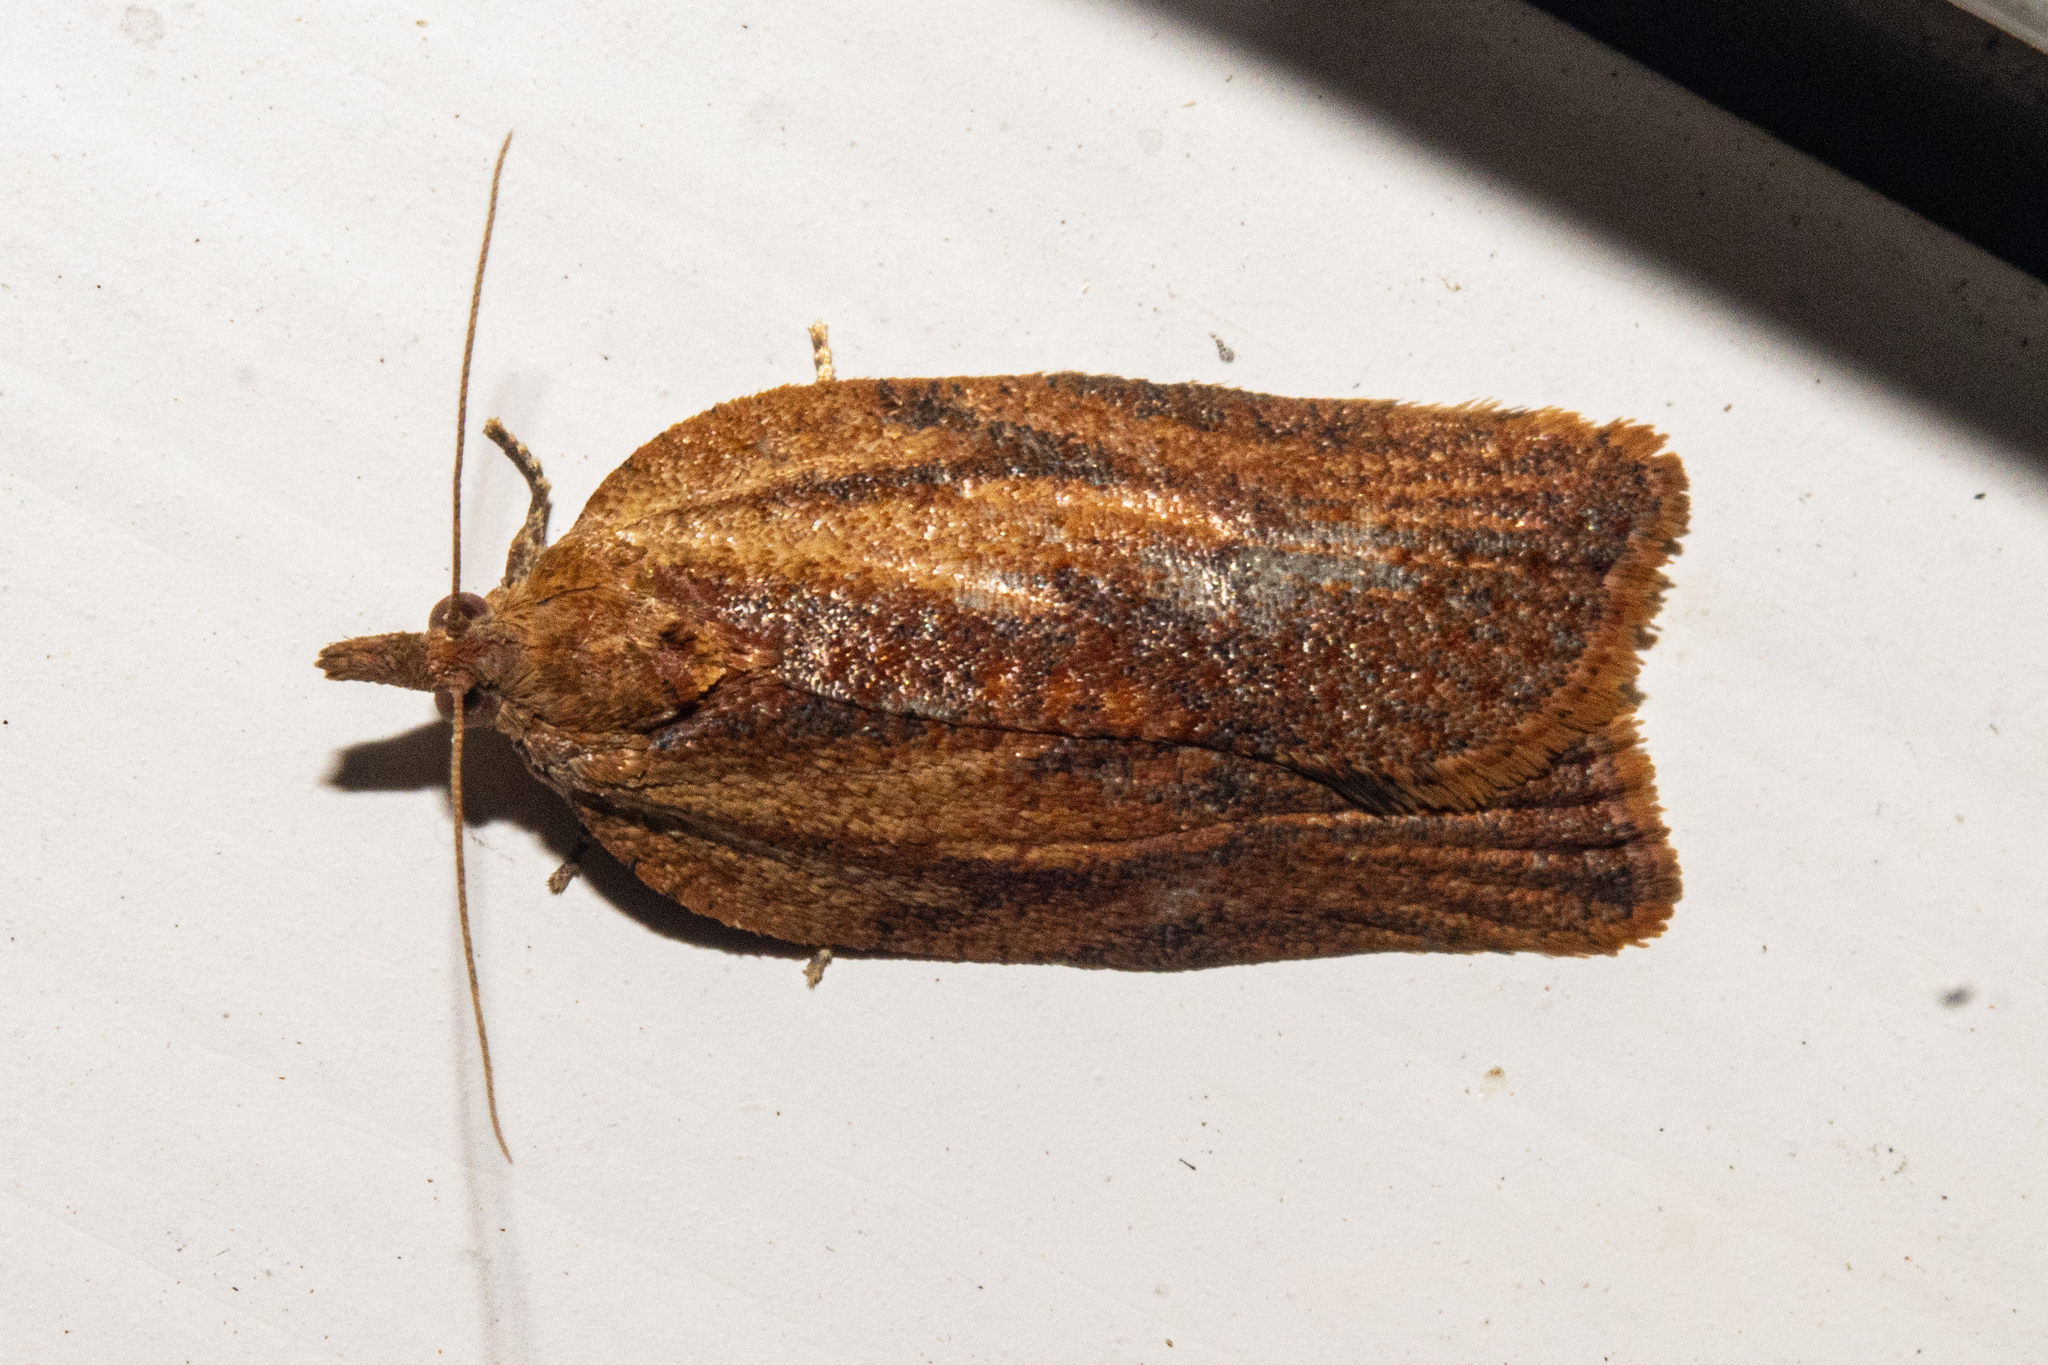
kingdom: Animalia
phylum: Arthropoda
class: Insecta
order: Lepidoptera
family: Tortricidae
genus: Epiphyas
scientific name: Epiphyas postvittana
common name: Light brown apple moth
